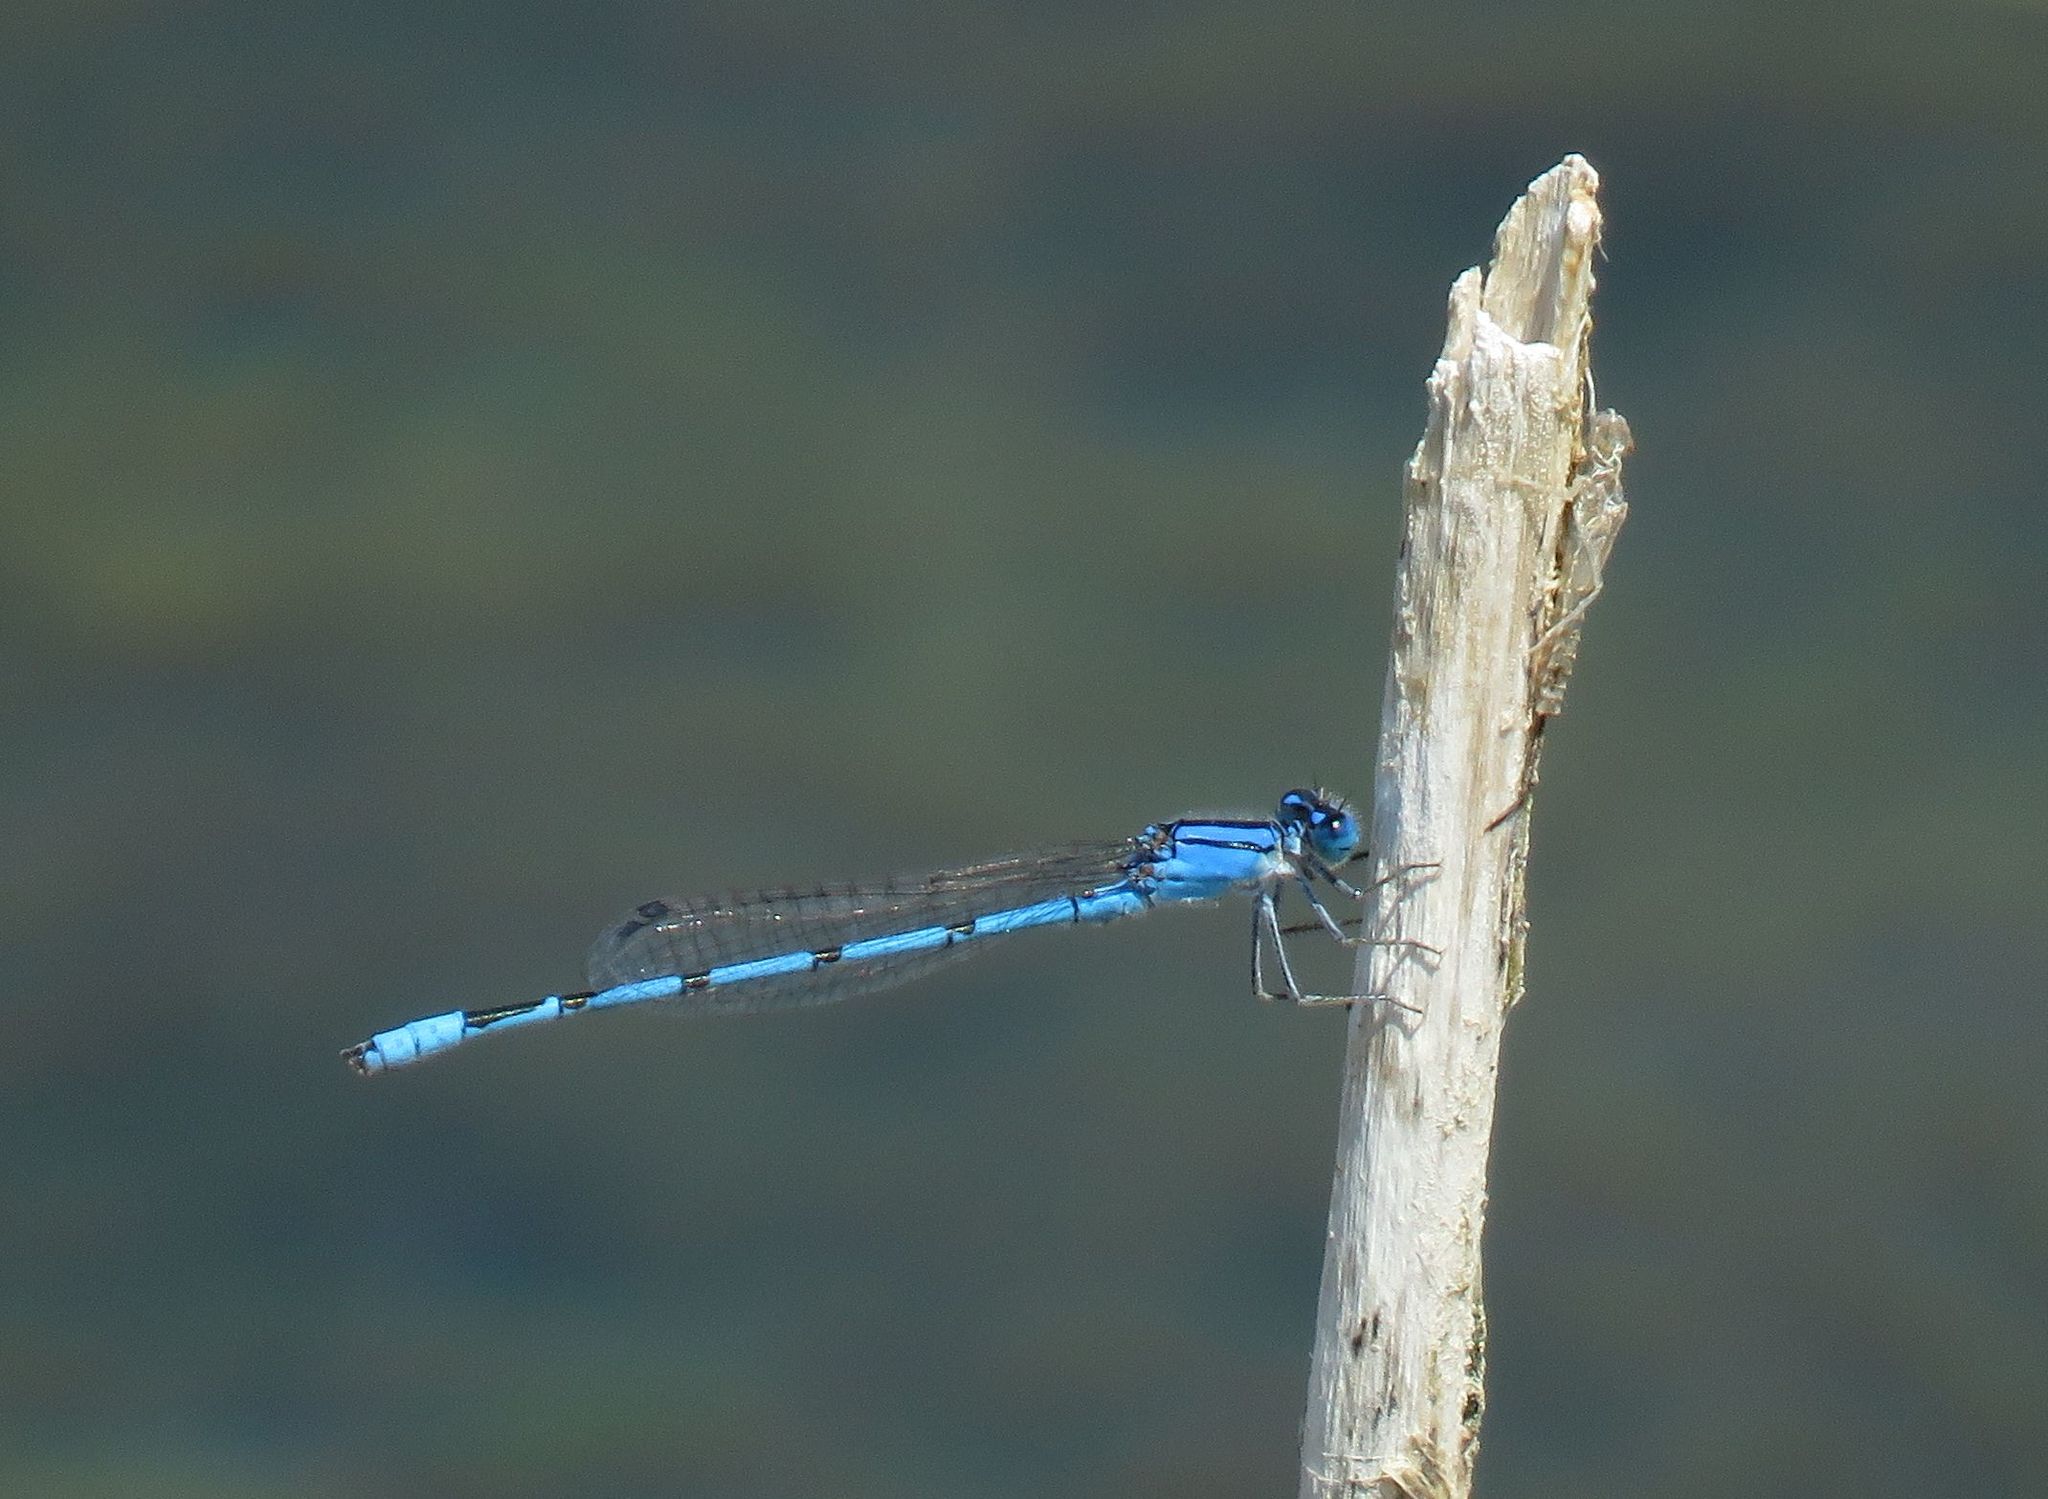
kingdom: Animalia
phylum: Arthropoda
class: Insecta
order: Odonata
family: Coenagrionidae
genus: Enallagma
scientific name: Enallagma civile
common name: Damselfly
